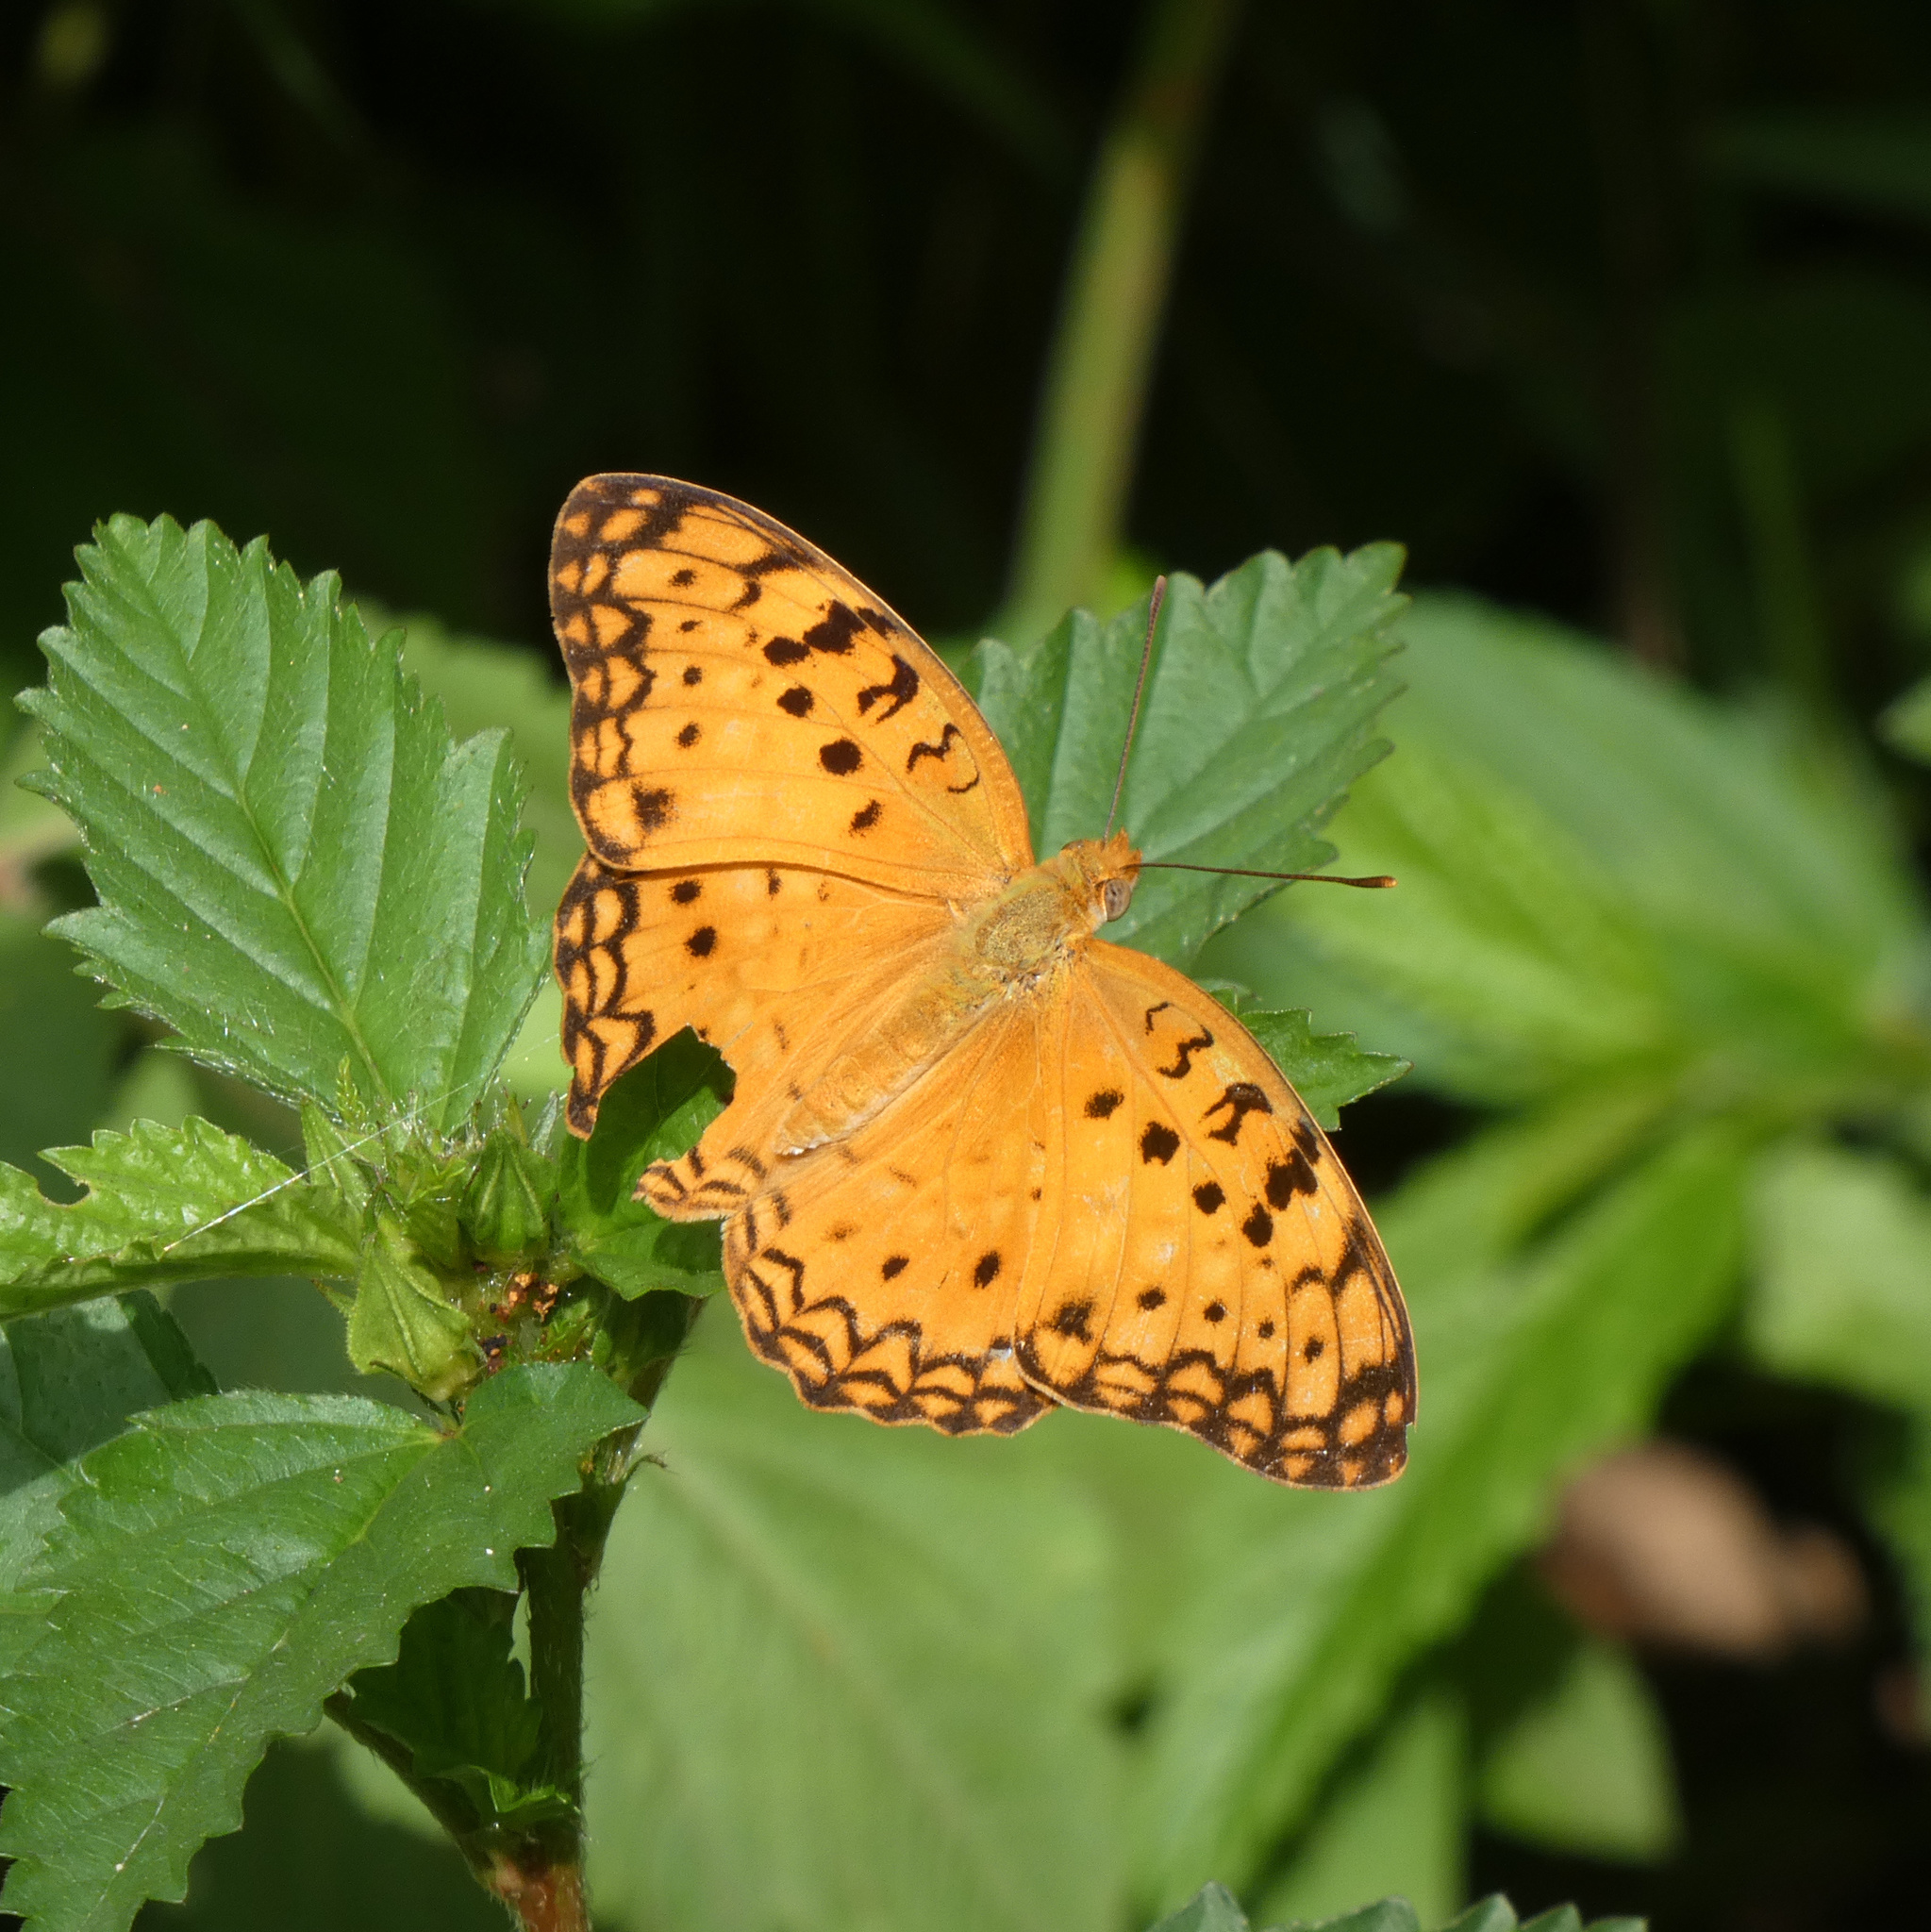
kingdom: Animalia
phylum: Arthropoda
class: Insecta
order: Lepidoptera
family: Nymphalidae
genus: Phalanta
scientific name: Phalanta phalantha
